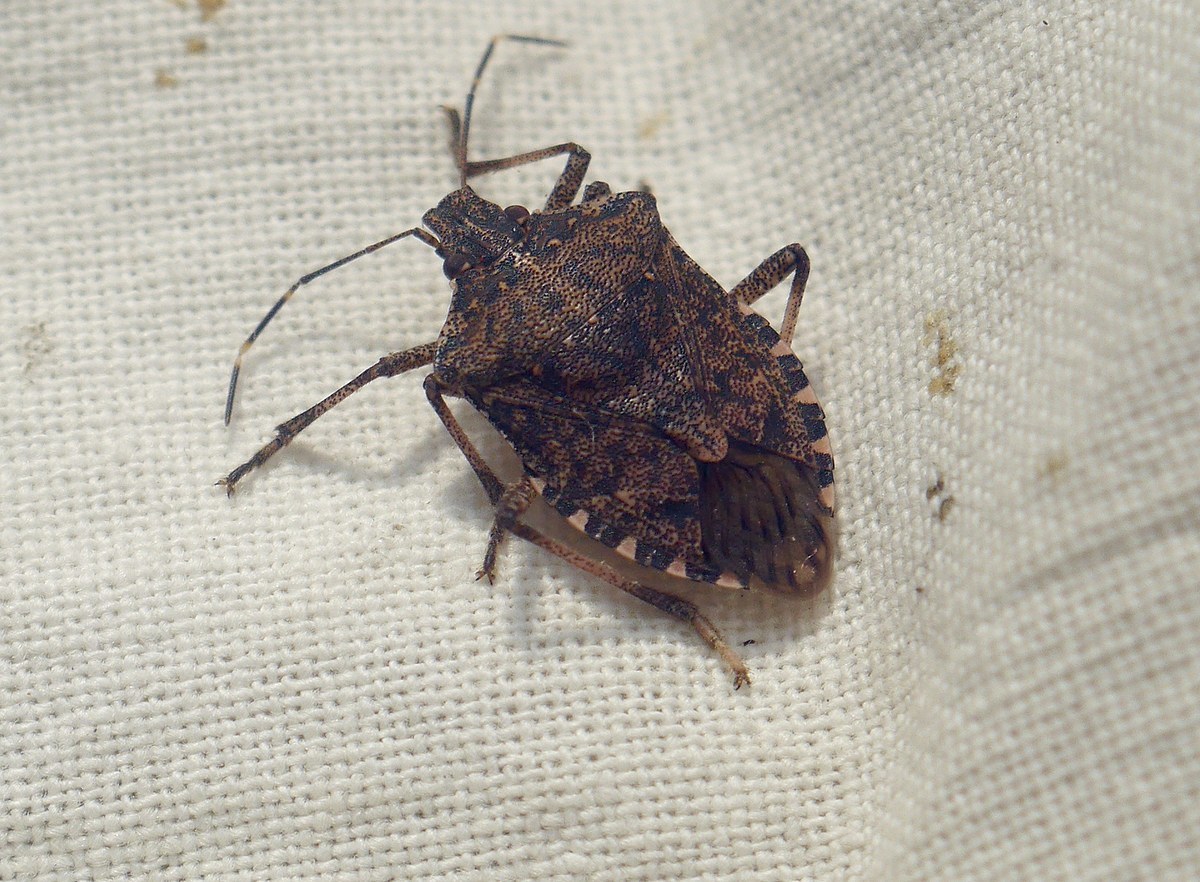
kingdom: Animalia
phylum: Arthropoda
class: Insecta
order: Hemiptera
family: Pentatomidae
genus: Halyomorpha
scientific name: Halyomorpha halys
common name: Brown marmorated stink bug
